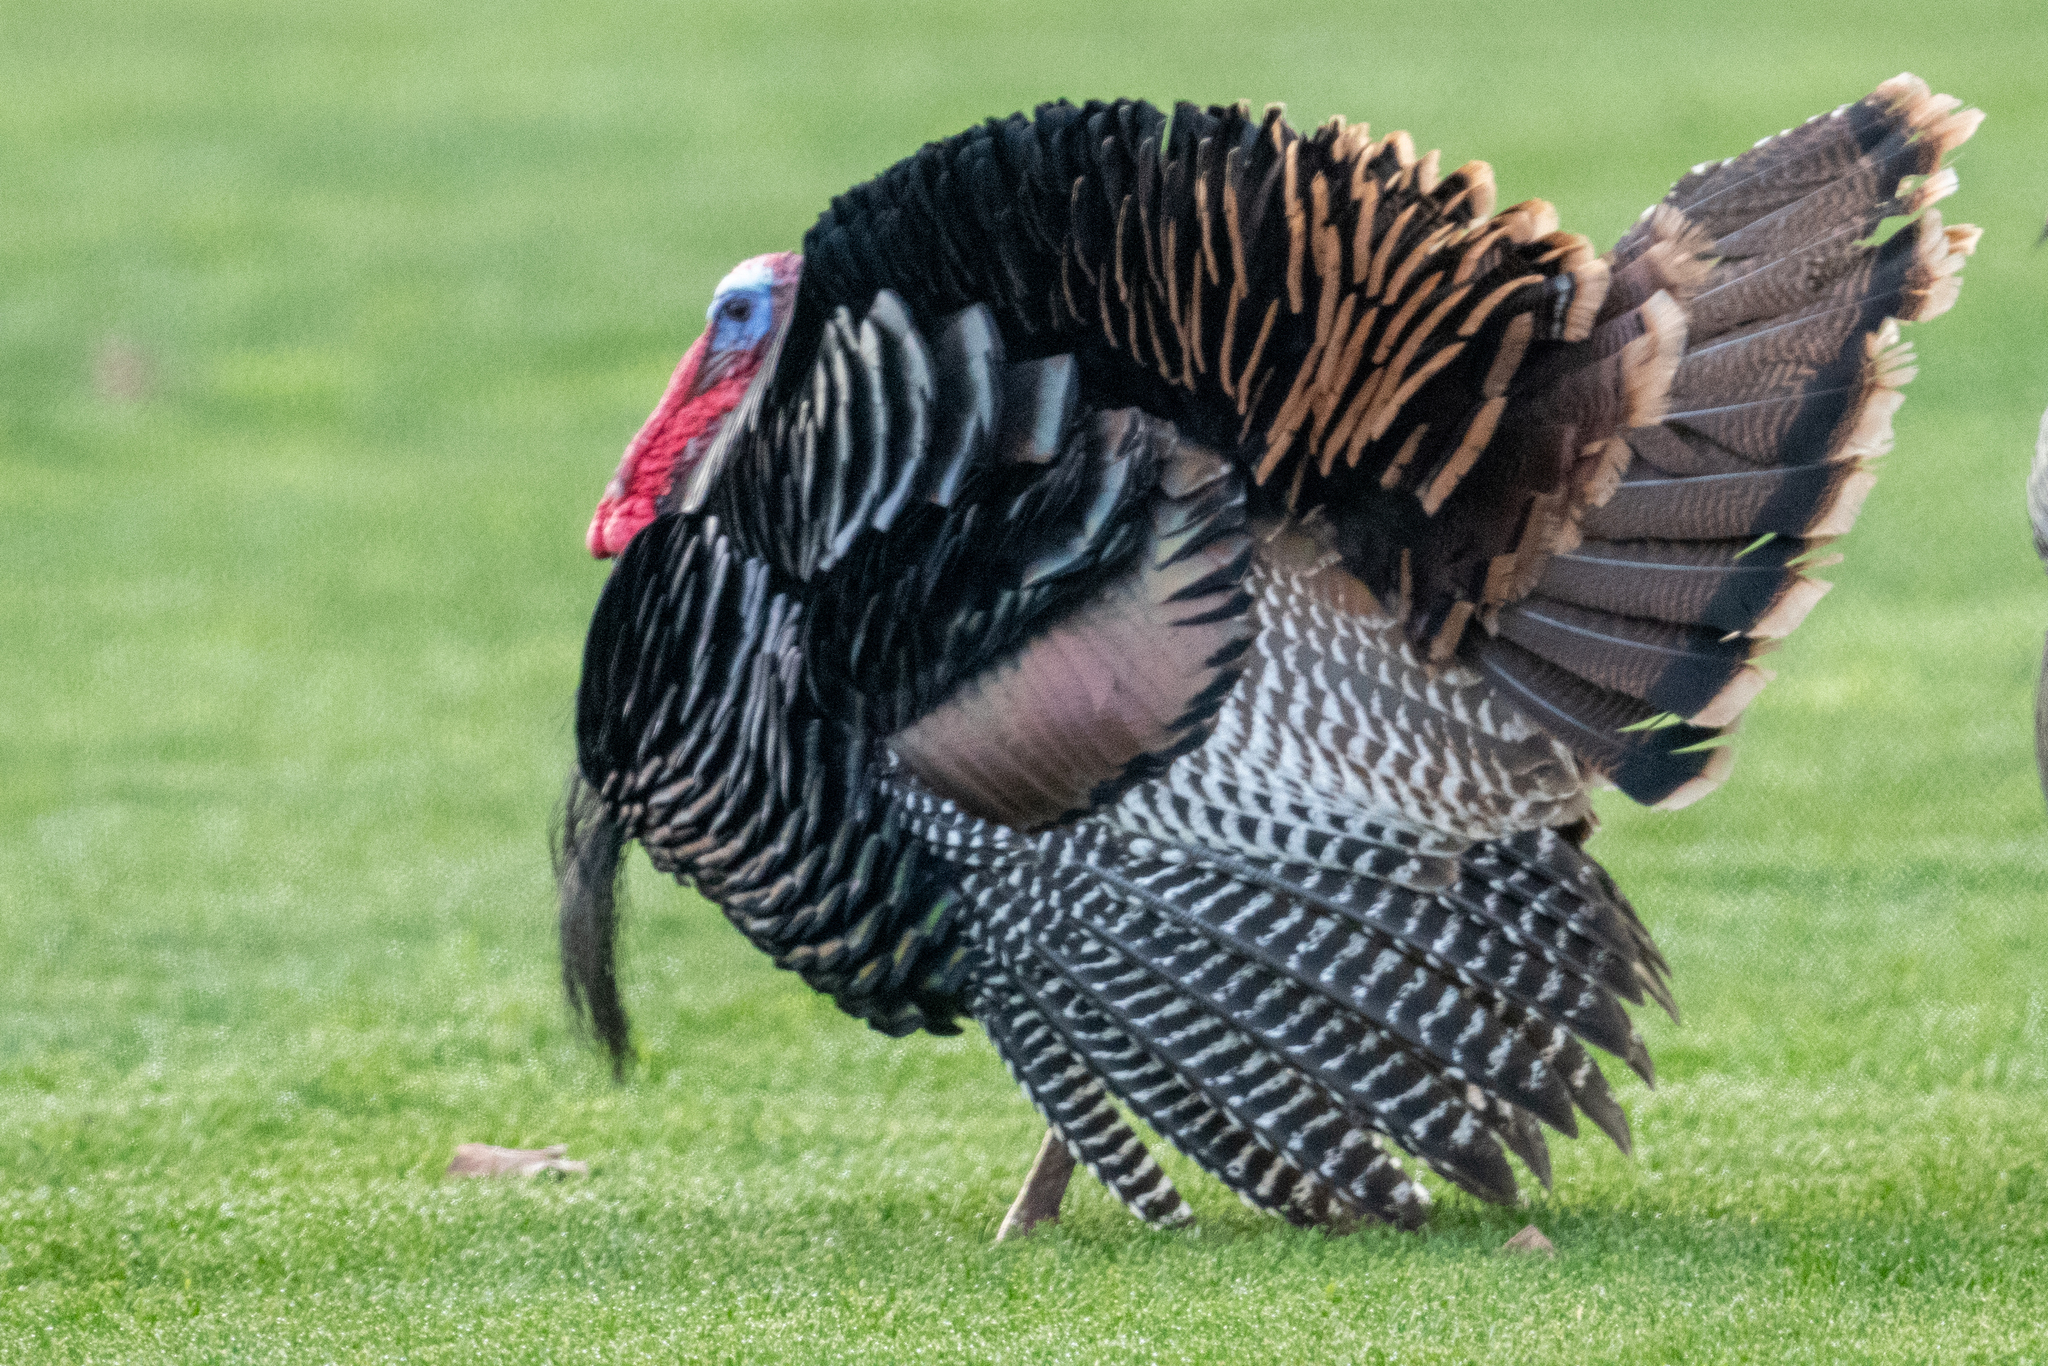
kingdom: Animalia
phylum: Chordata
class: Aves
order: Galliformes
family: Phasianidae
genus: Meleagris
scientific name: Meleagris gallopavo
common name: Wild turkey
